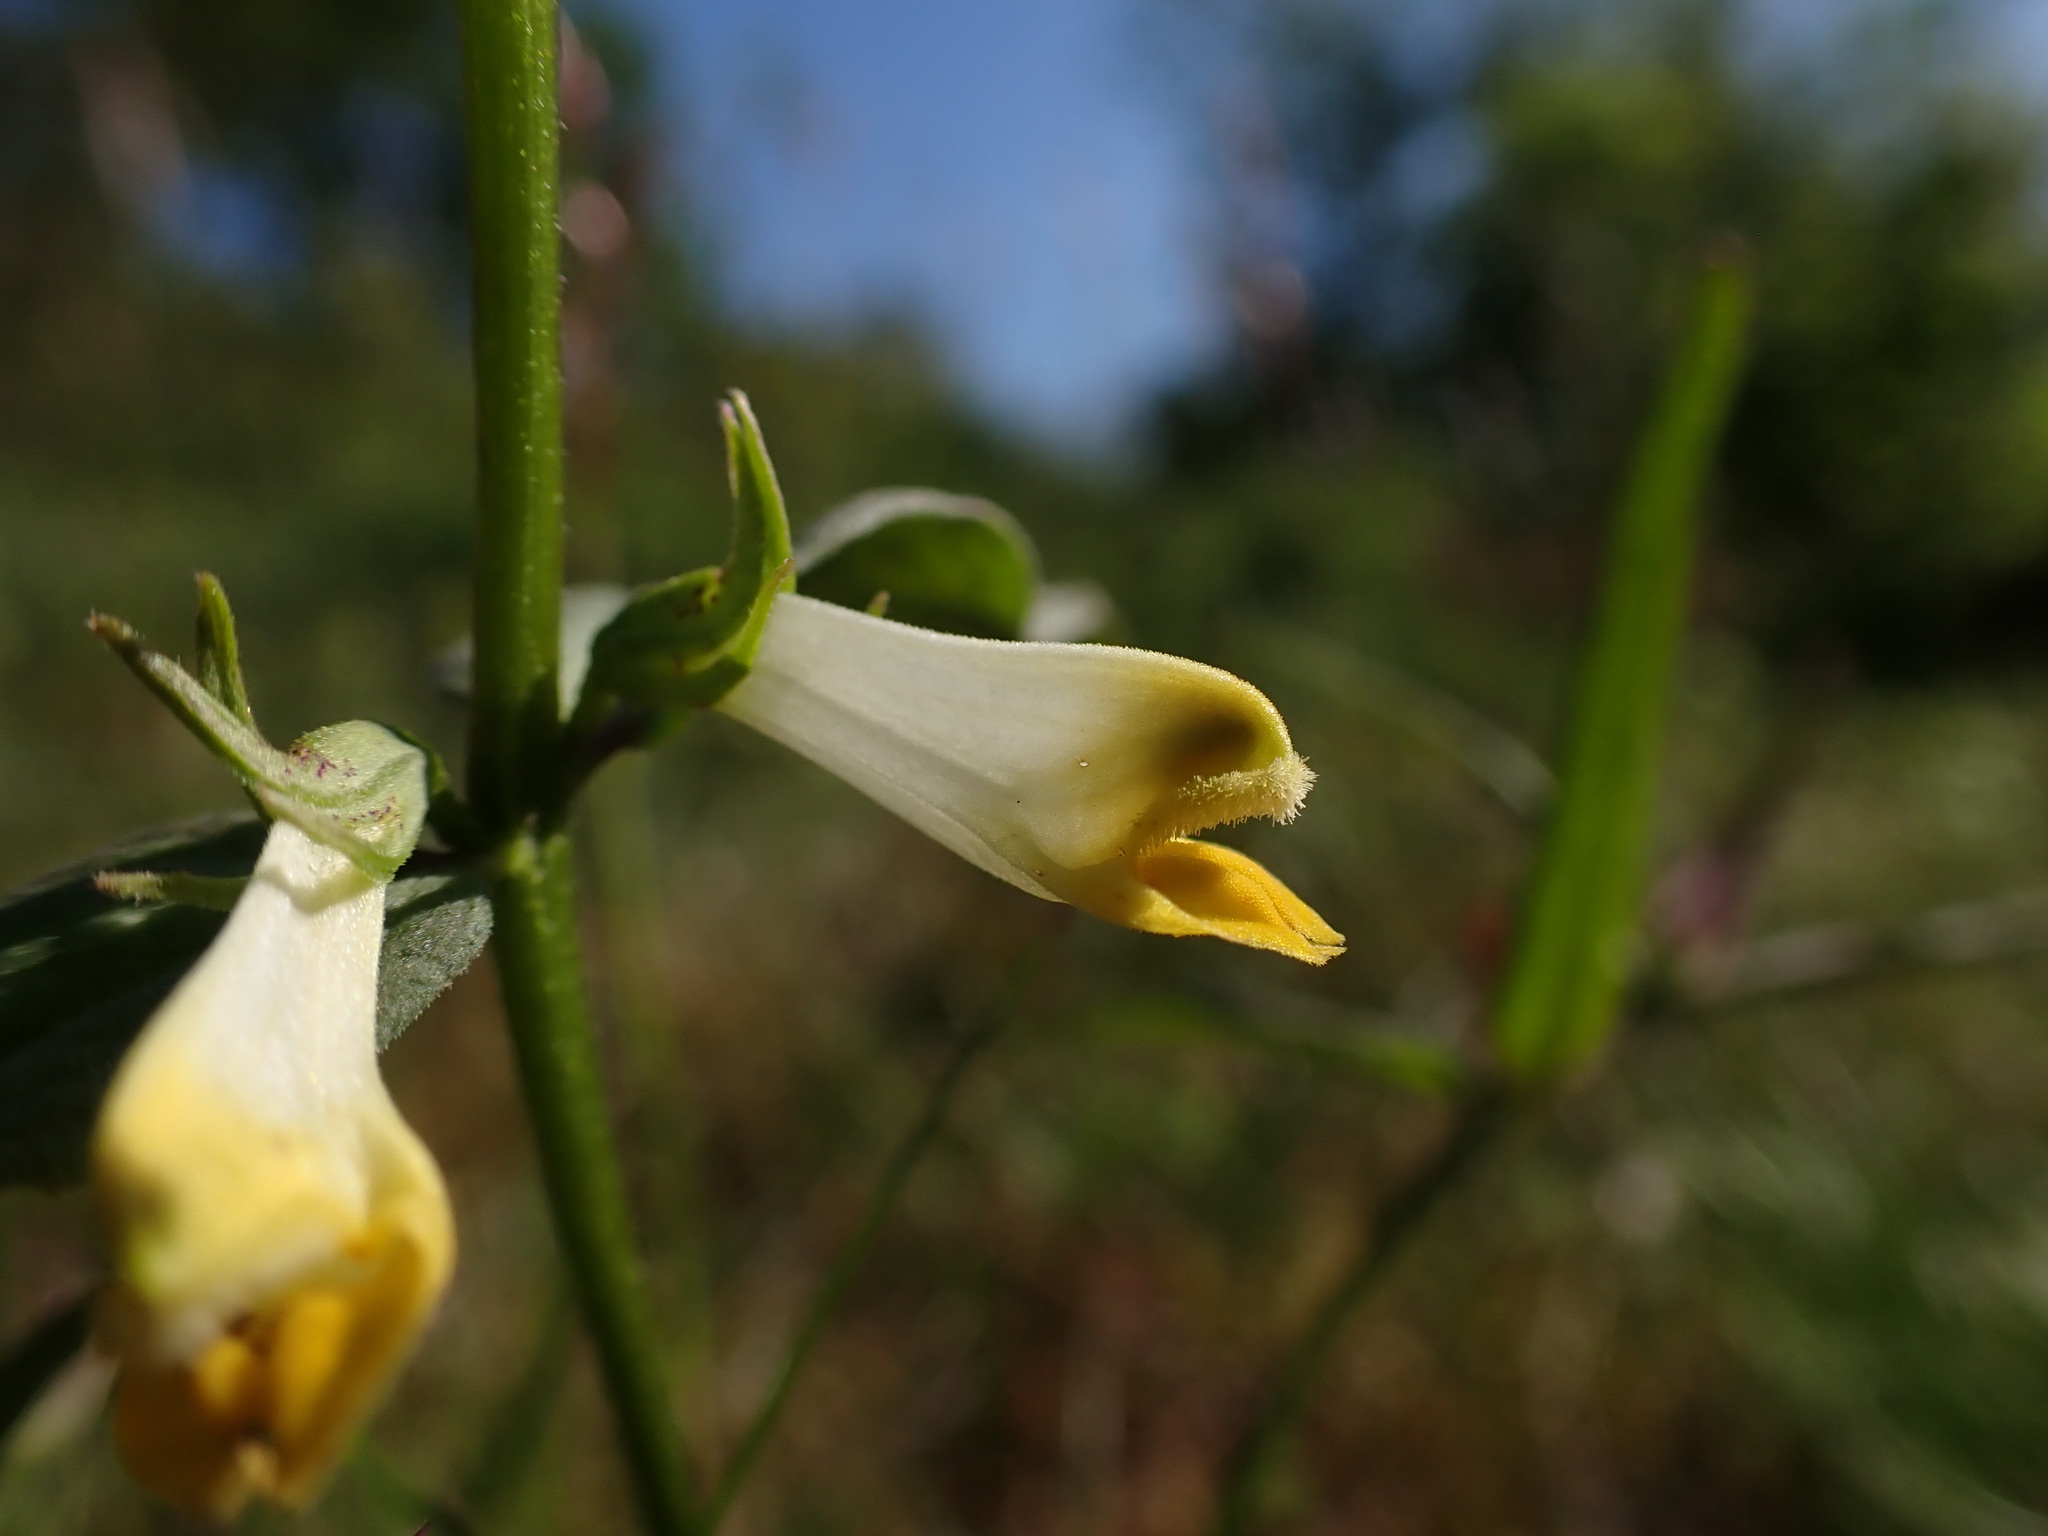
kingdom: Plantae
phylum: Tracheophyta
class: Magnoliopsida
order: Lamiales
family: Orobanchaceae
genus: Melampyrum
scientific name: Melampyrum pratense
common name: Common cow-wheat
